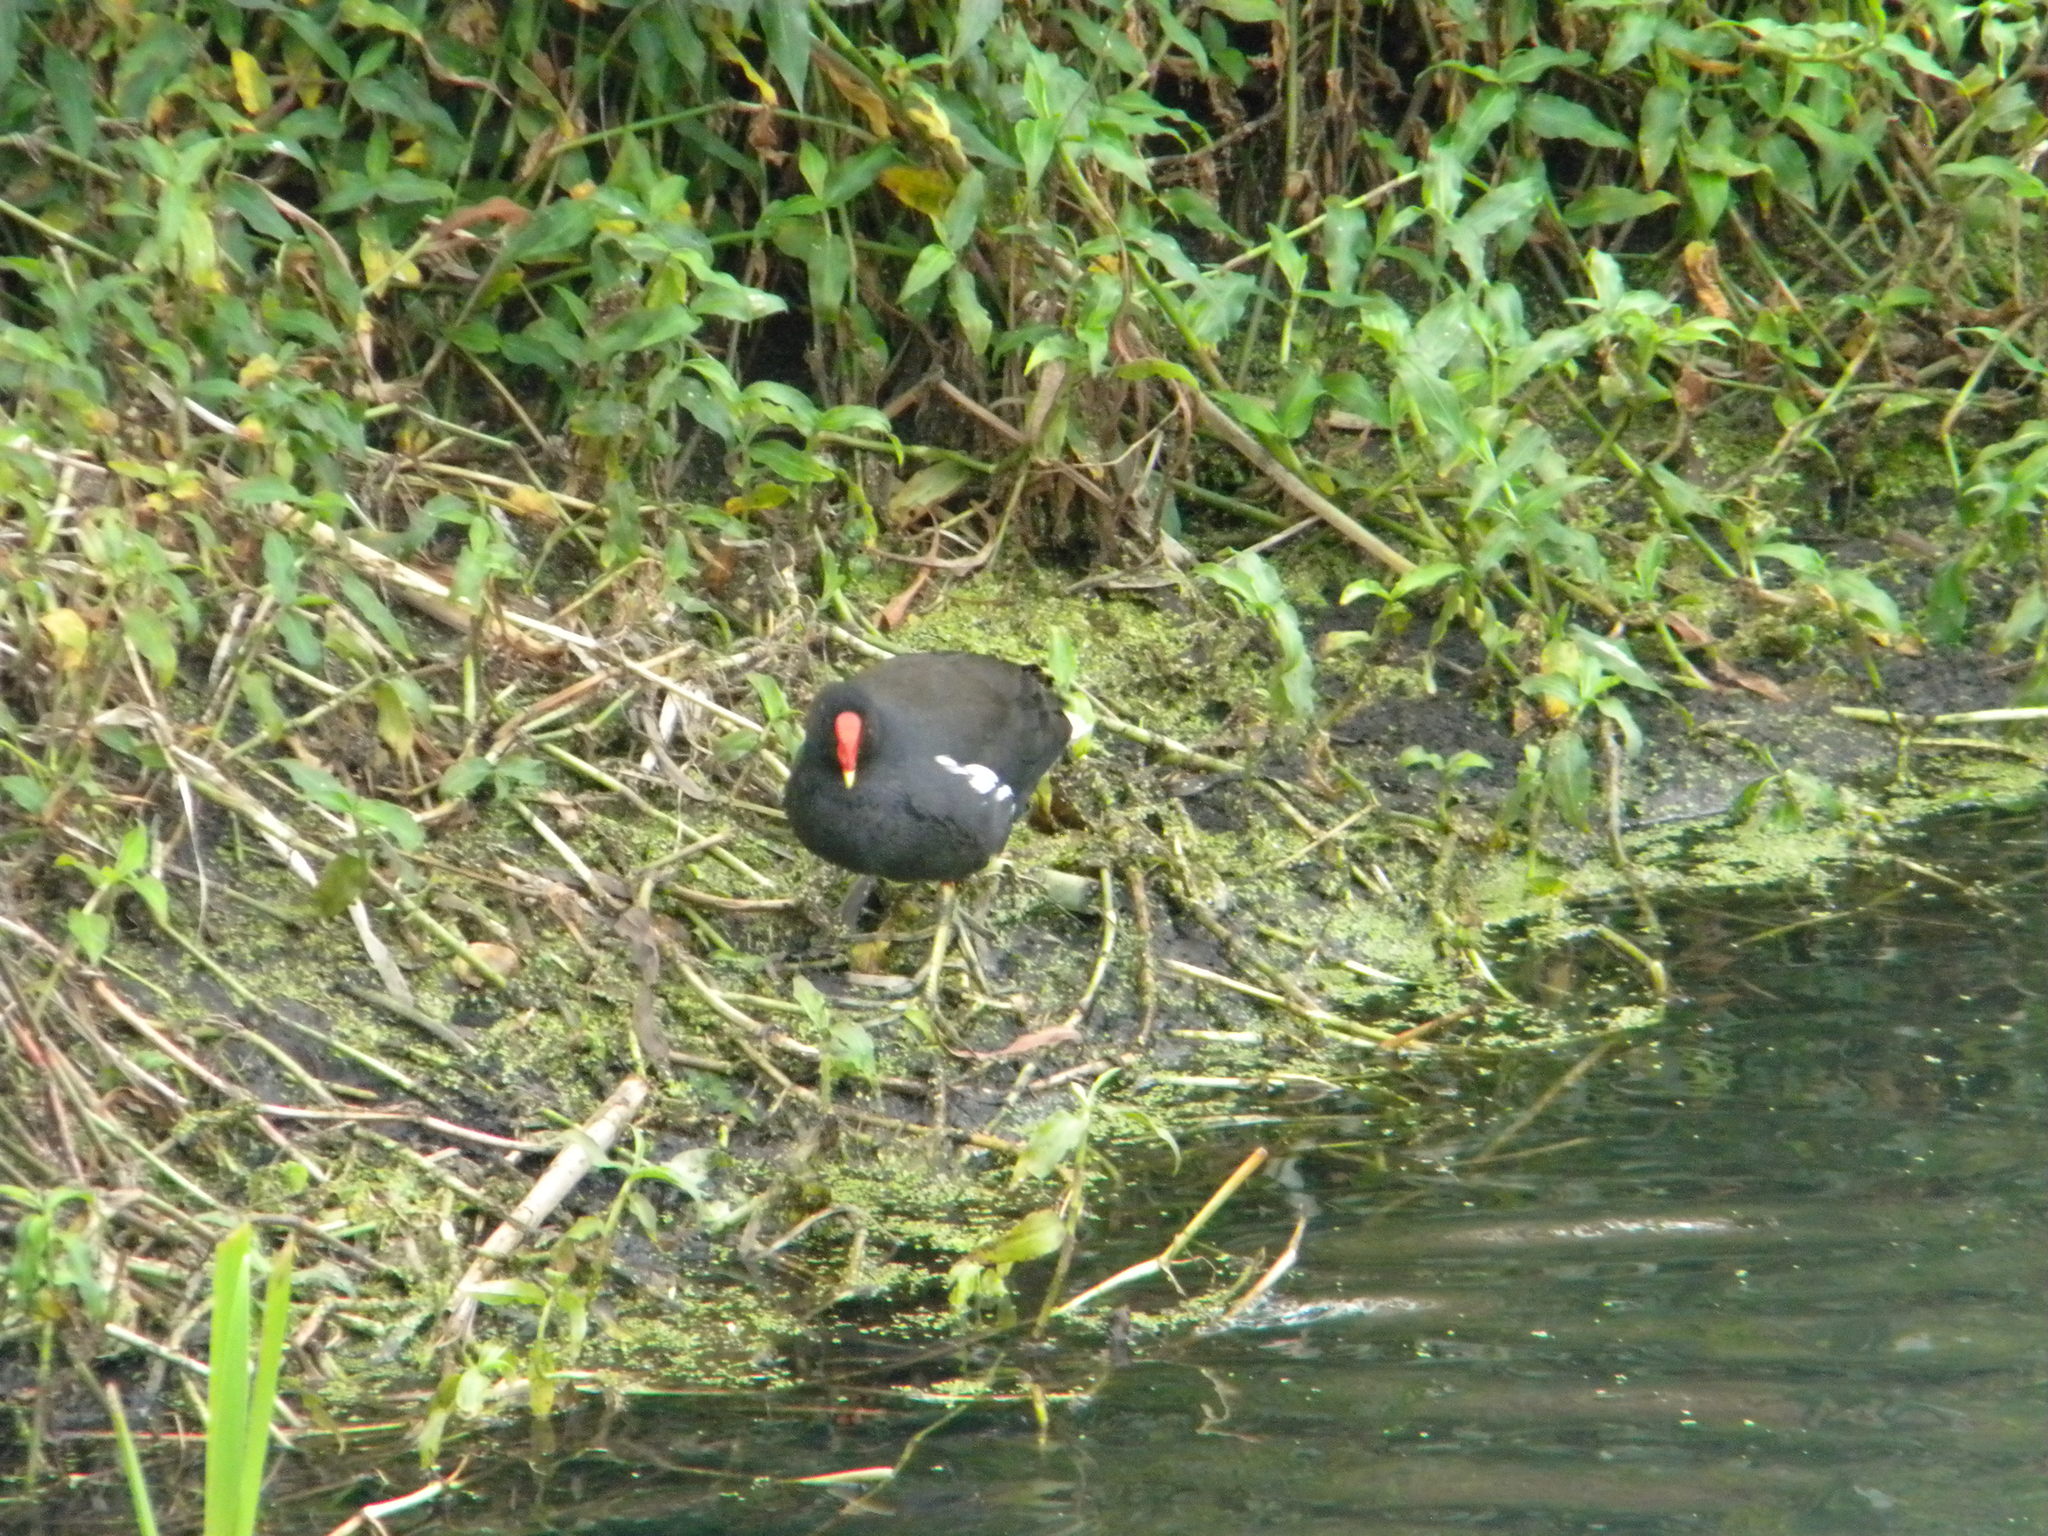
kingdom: Animalia
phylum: Chordata
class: Aves
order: Gruiformes
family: Rallidae
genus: Gallinula
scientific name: Gallinula chloropus
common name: Common moorhen
